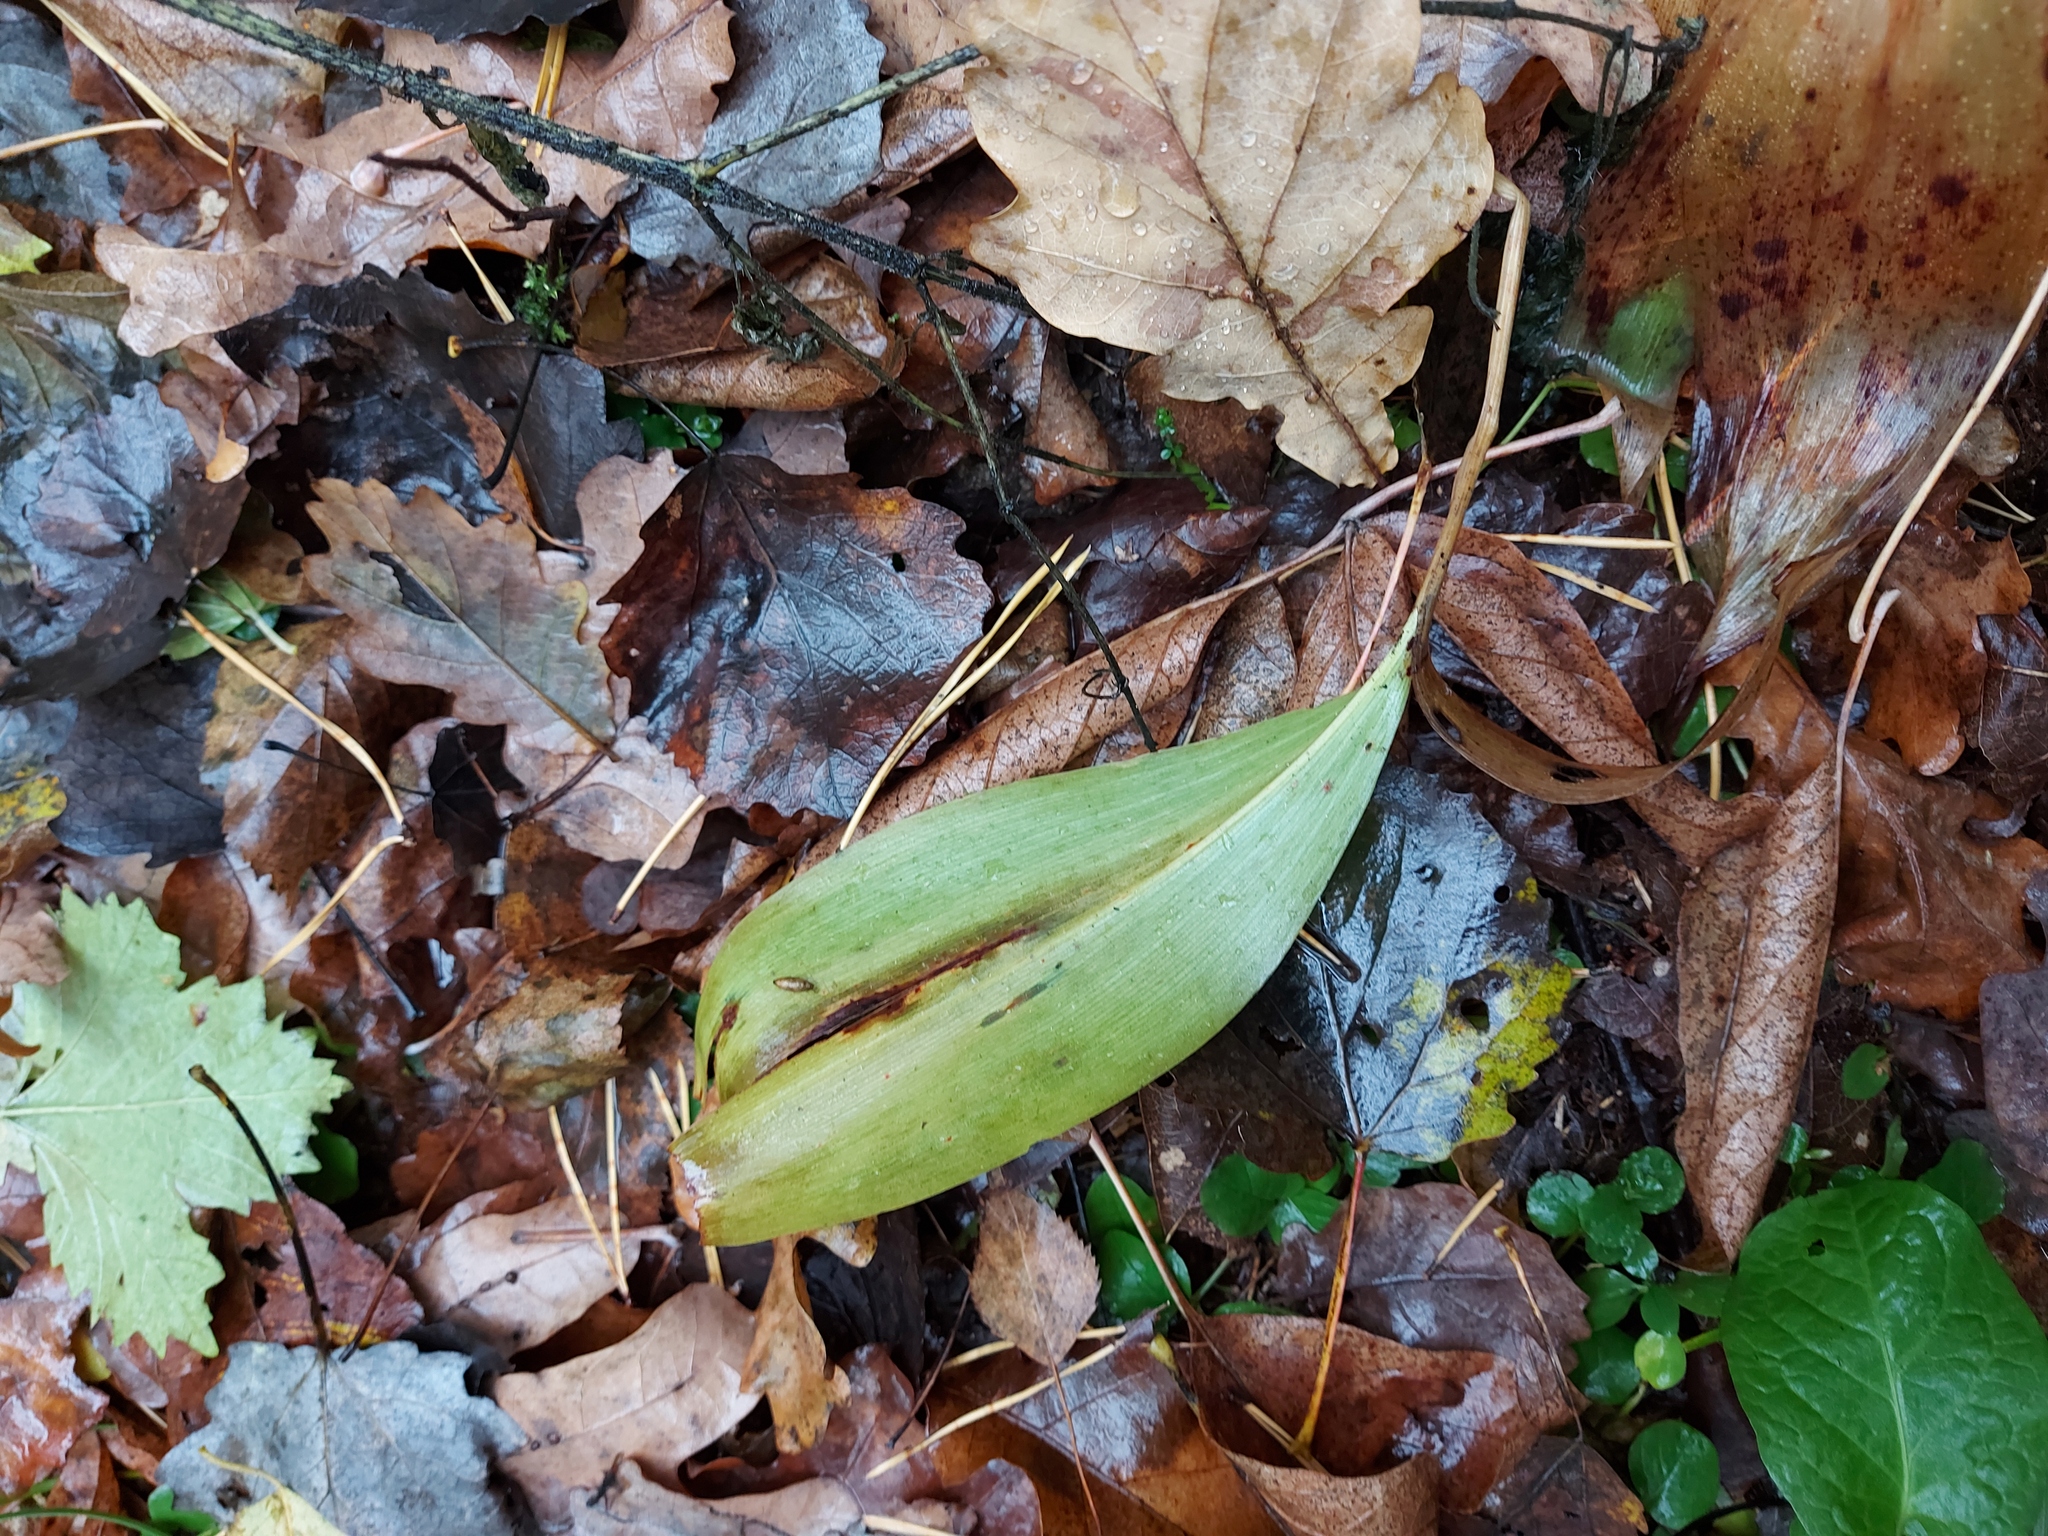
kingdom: Plantae
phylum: Tracheophyta
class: Liliopsida
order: Asparagales
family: Asparagaceae
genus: Convallaria
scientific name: Convallaria majalis
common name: Lily-of-the-valley
